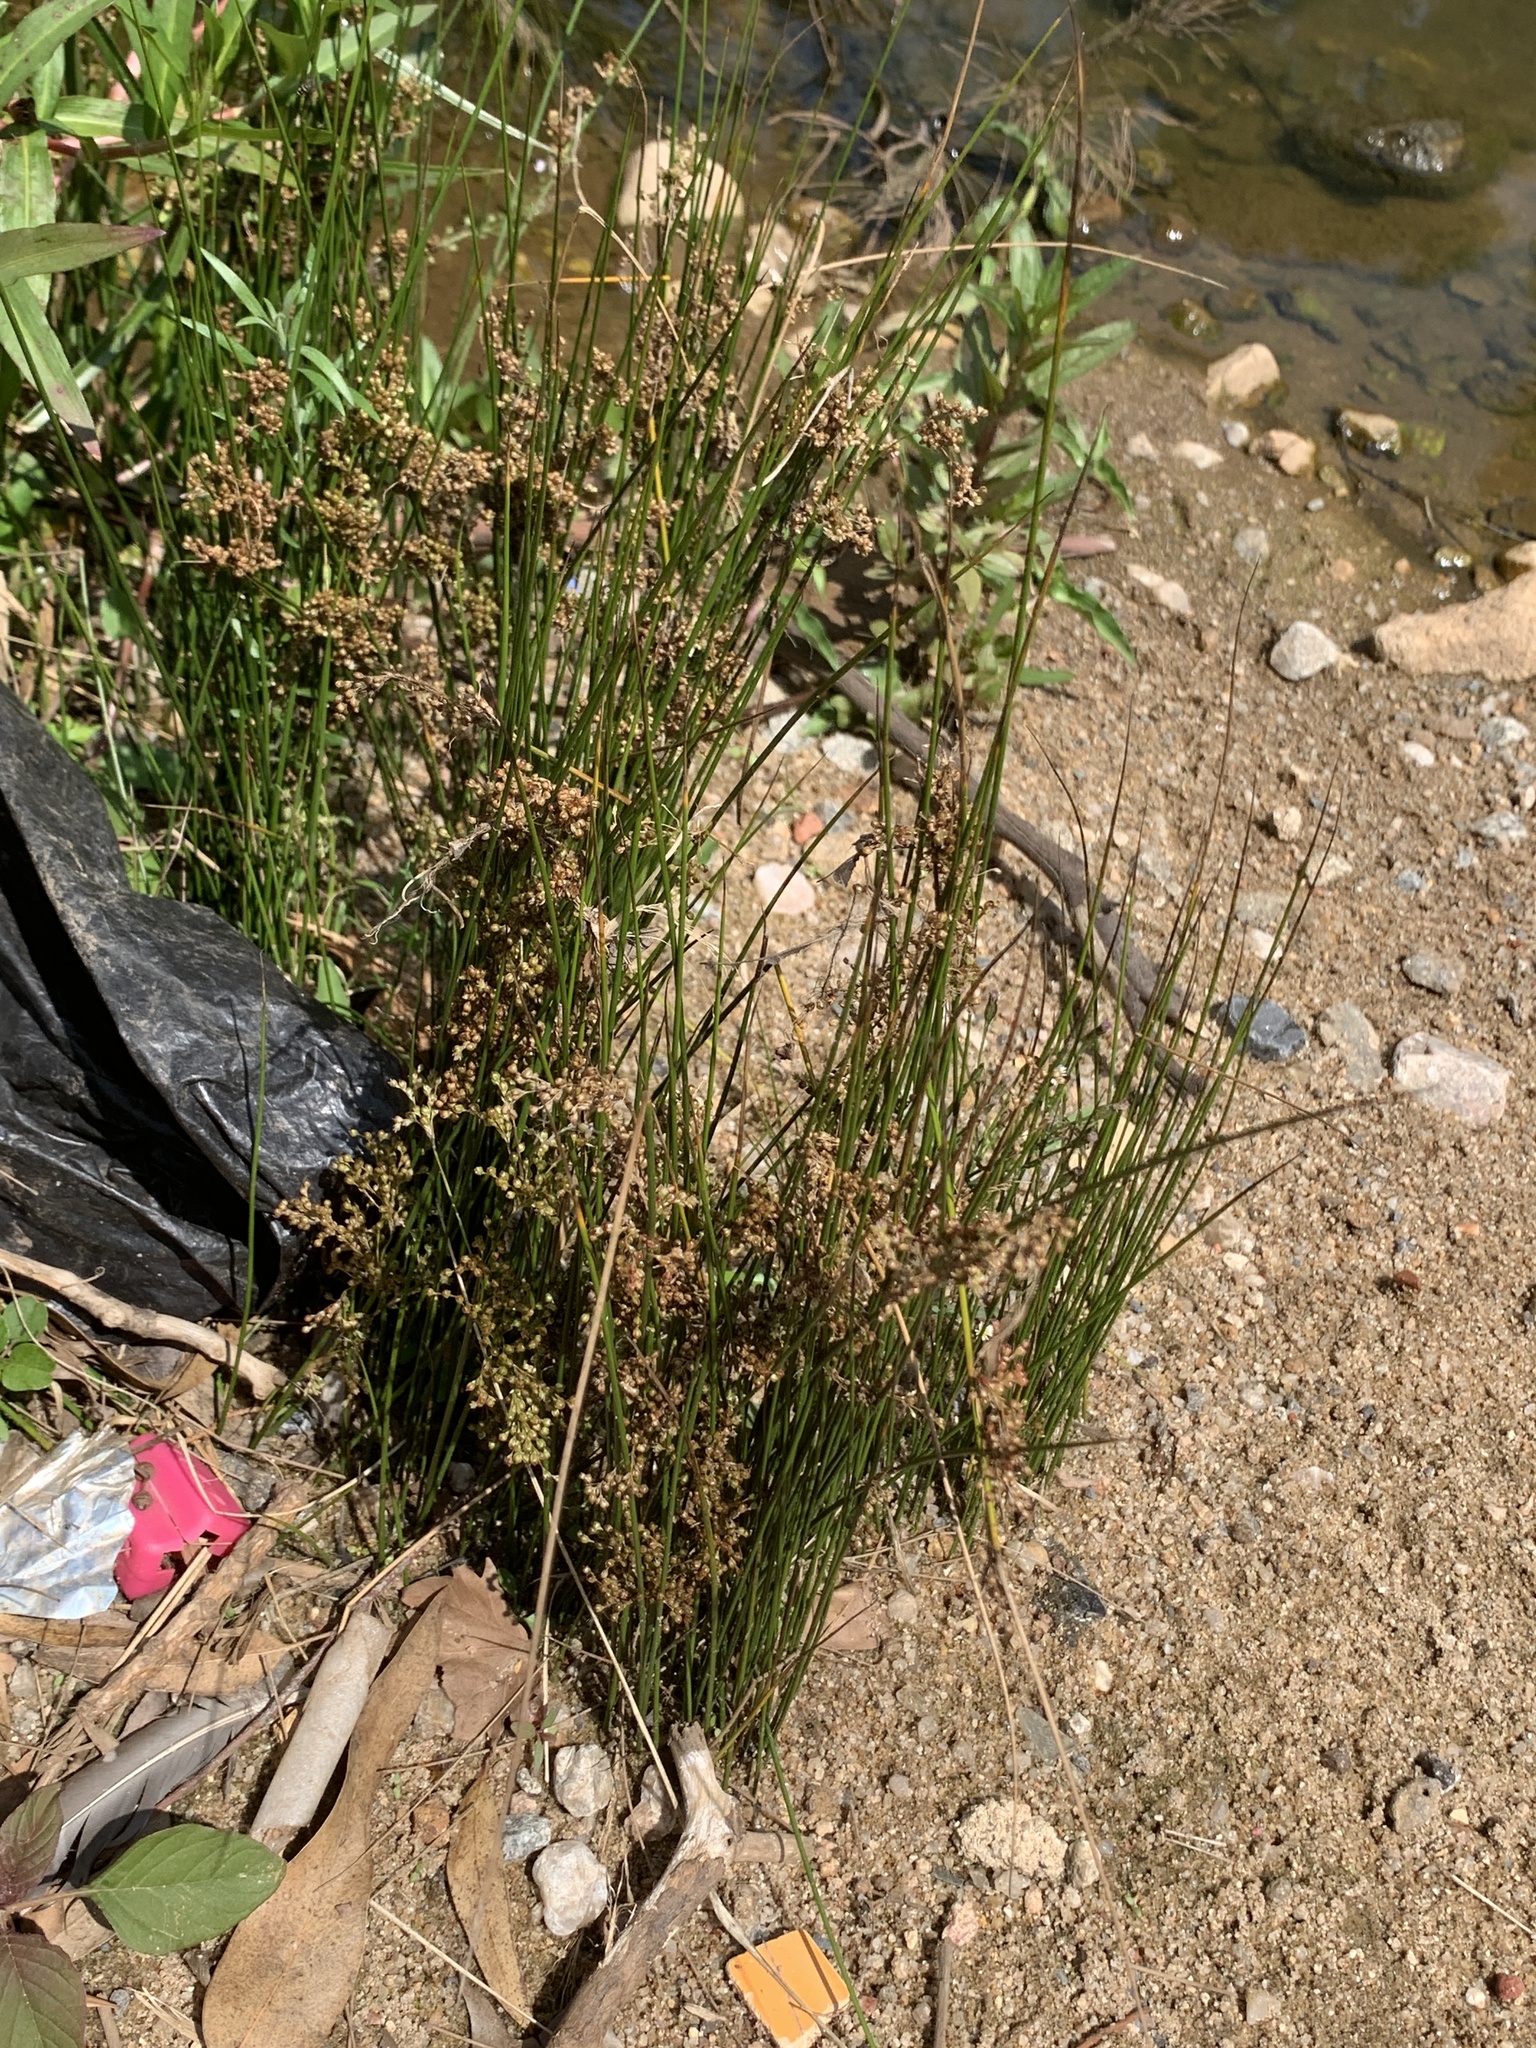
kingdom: Plantae
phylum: Tracheophyta
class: Liliopsida
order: Poales
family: Juncaceae
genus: Juncus
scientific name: Juncus effusus
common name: Soft rush
